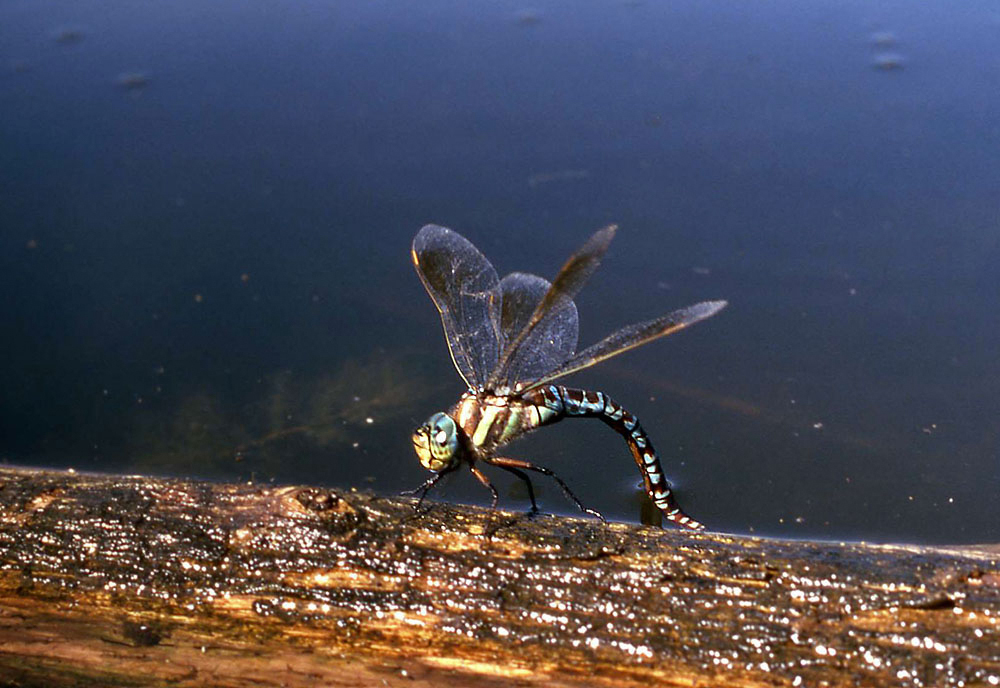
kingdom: Animalia
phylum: Arthropoda
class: Insecta
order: Odonata
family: Aeshnidae
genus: Aeshna
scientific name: Aeshna crenata
